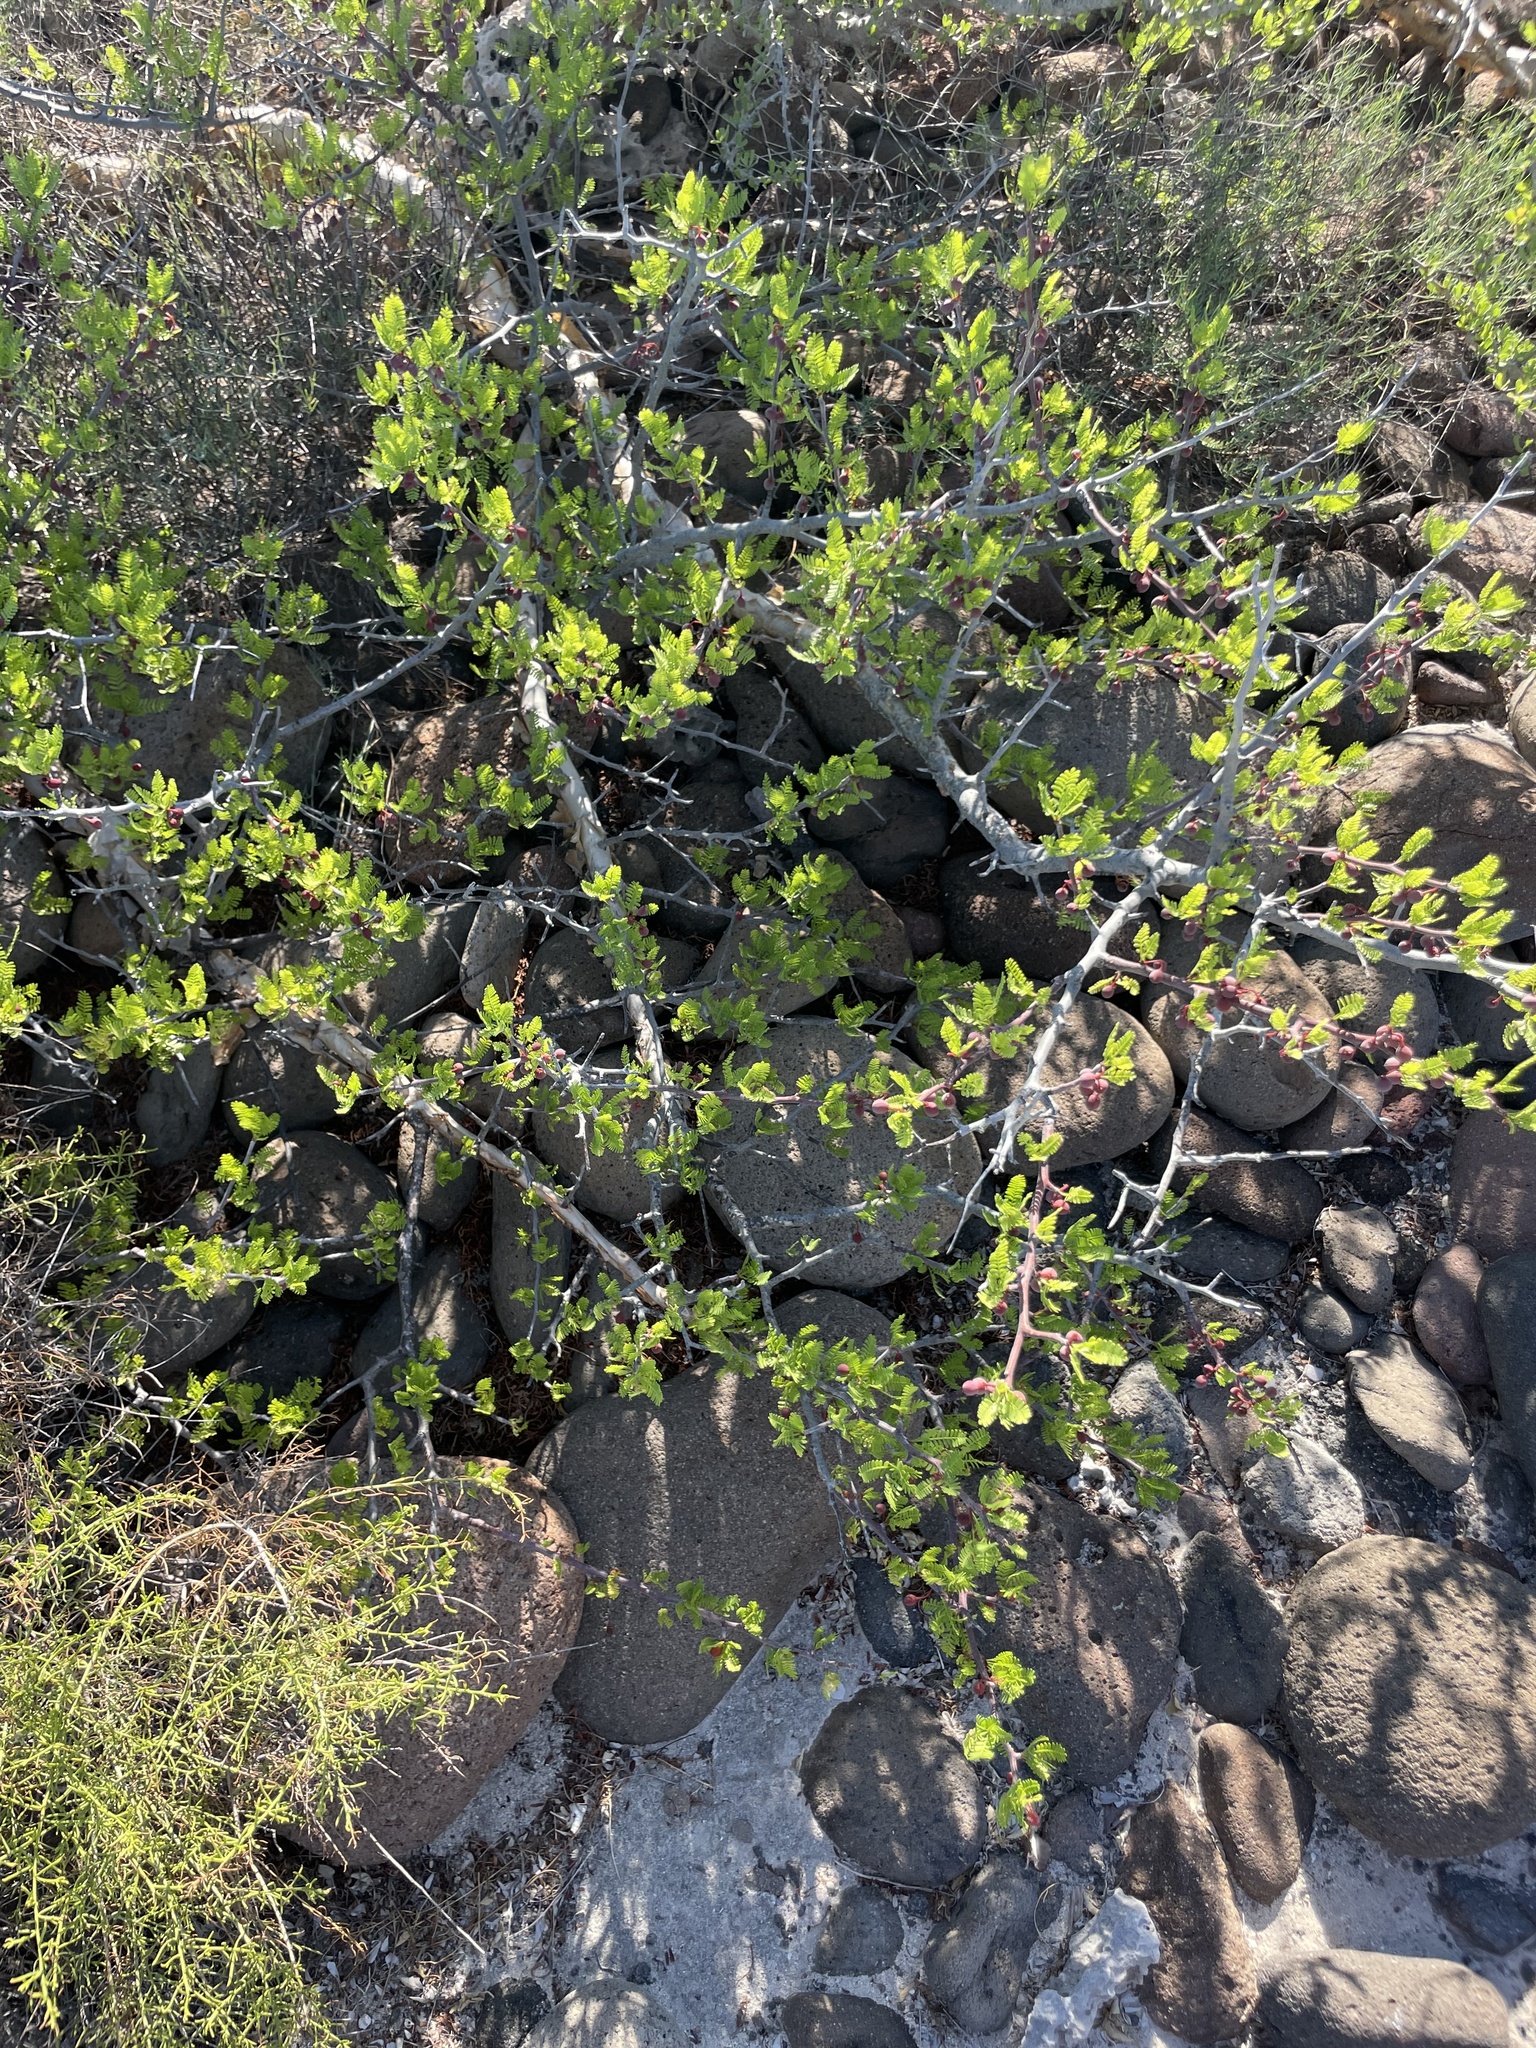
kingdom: Plantae
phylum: Tracheophyta
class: Magnoliopsida
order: Sapindales
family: Burseraceae
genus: Bursera
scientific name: Bursera microphylla
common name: Elephant tree
